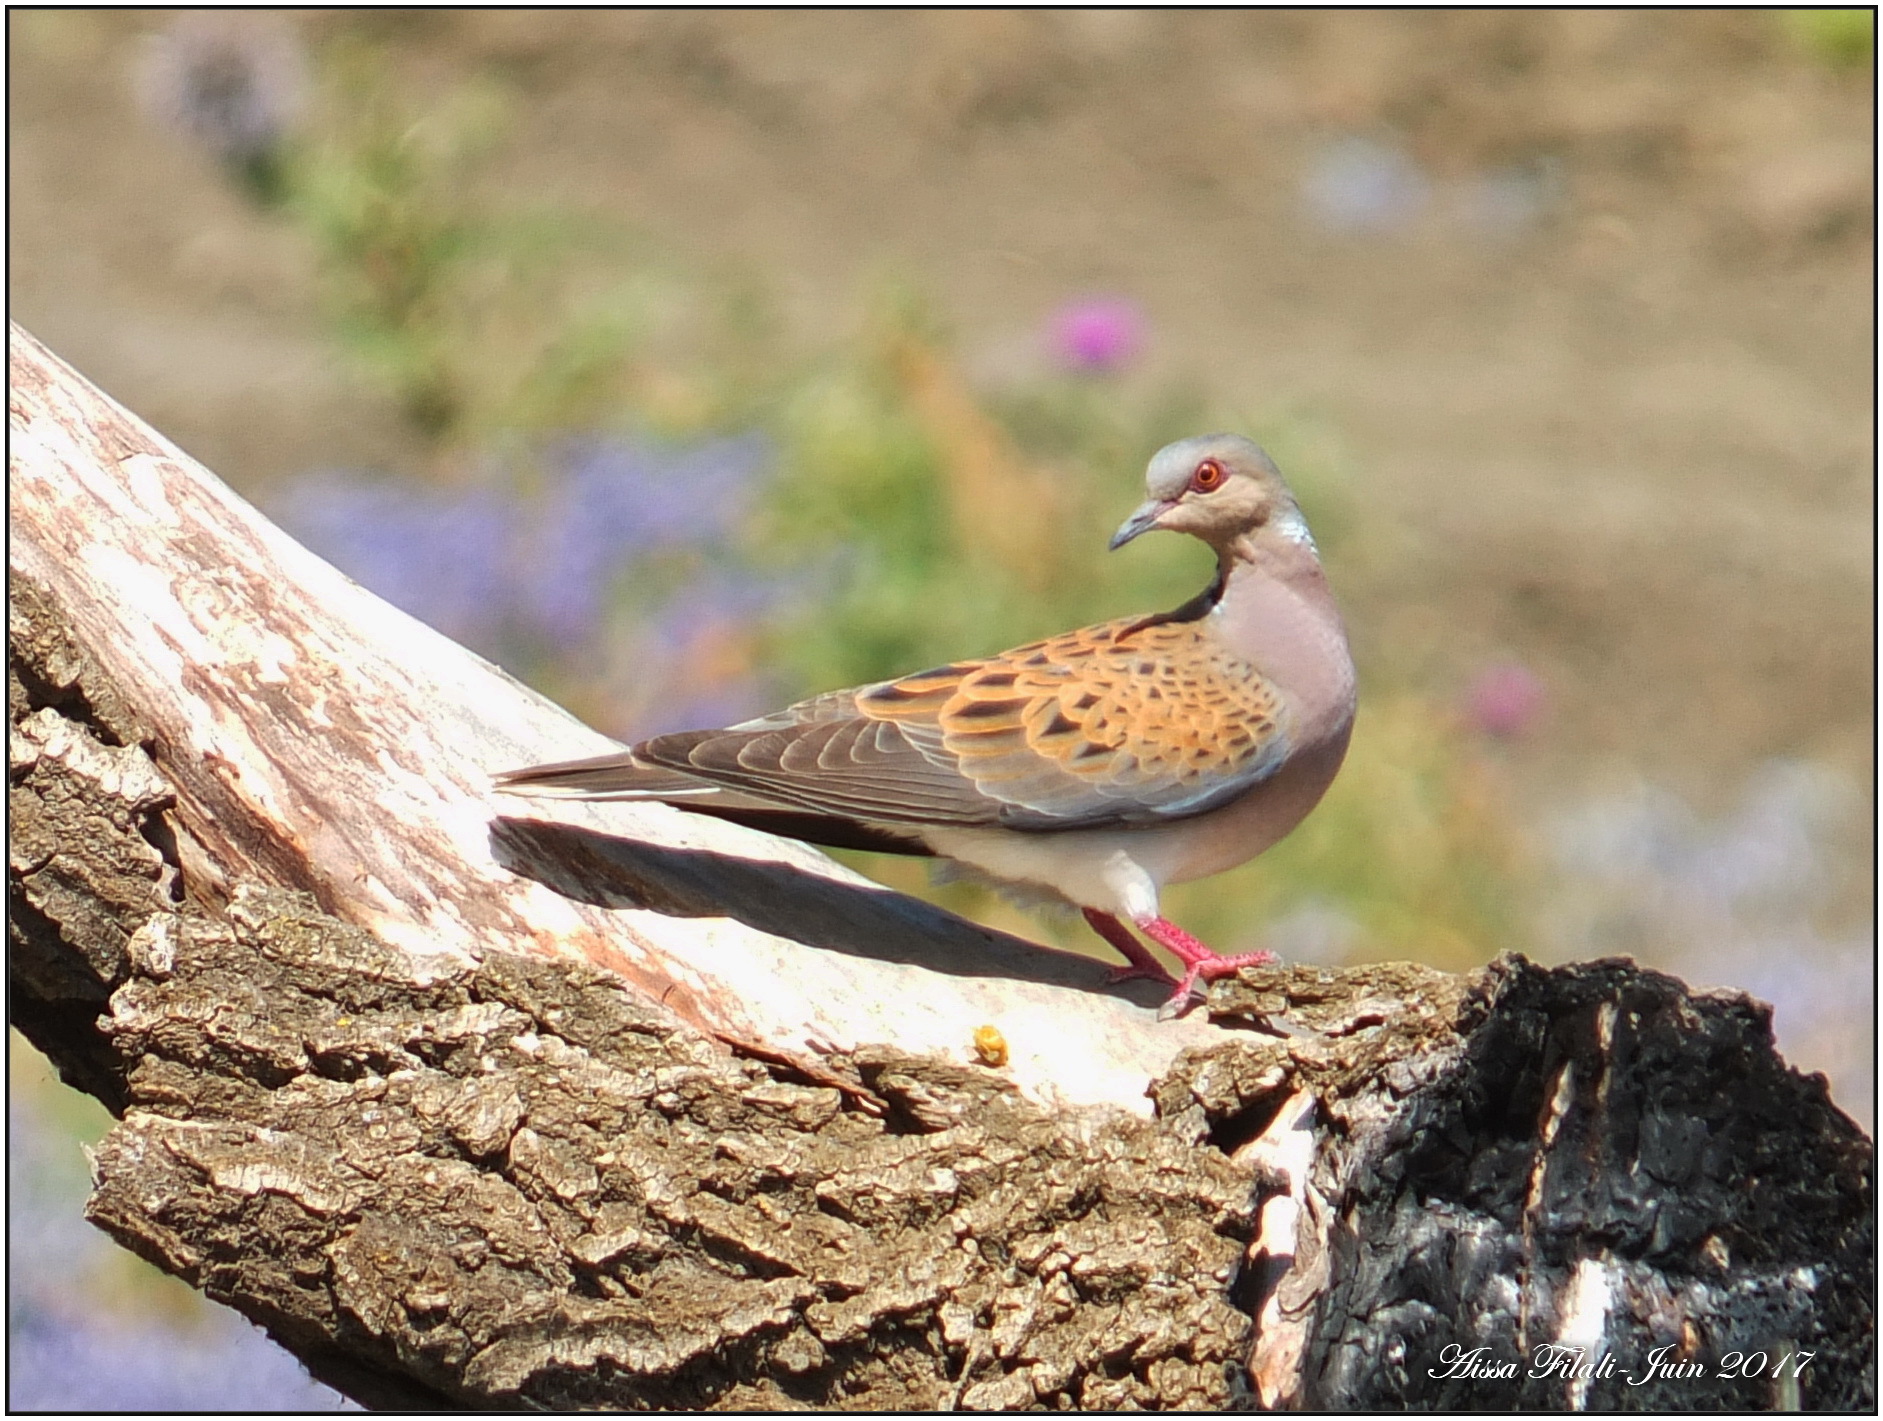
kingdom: Animalia
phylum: Chordata
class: Aves
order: Columbiformes
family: Columbidae
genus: Streptopelia
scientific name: Streptopelia turtur
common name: European turtle dove
